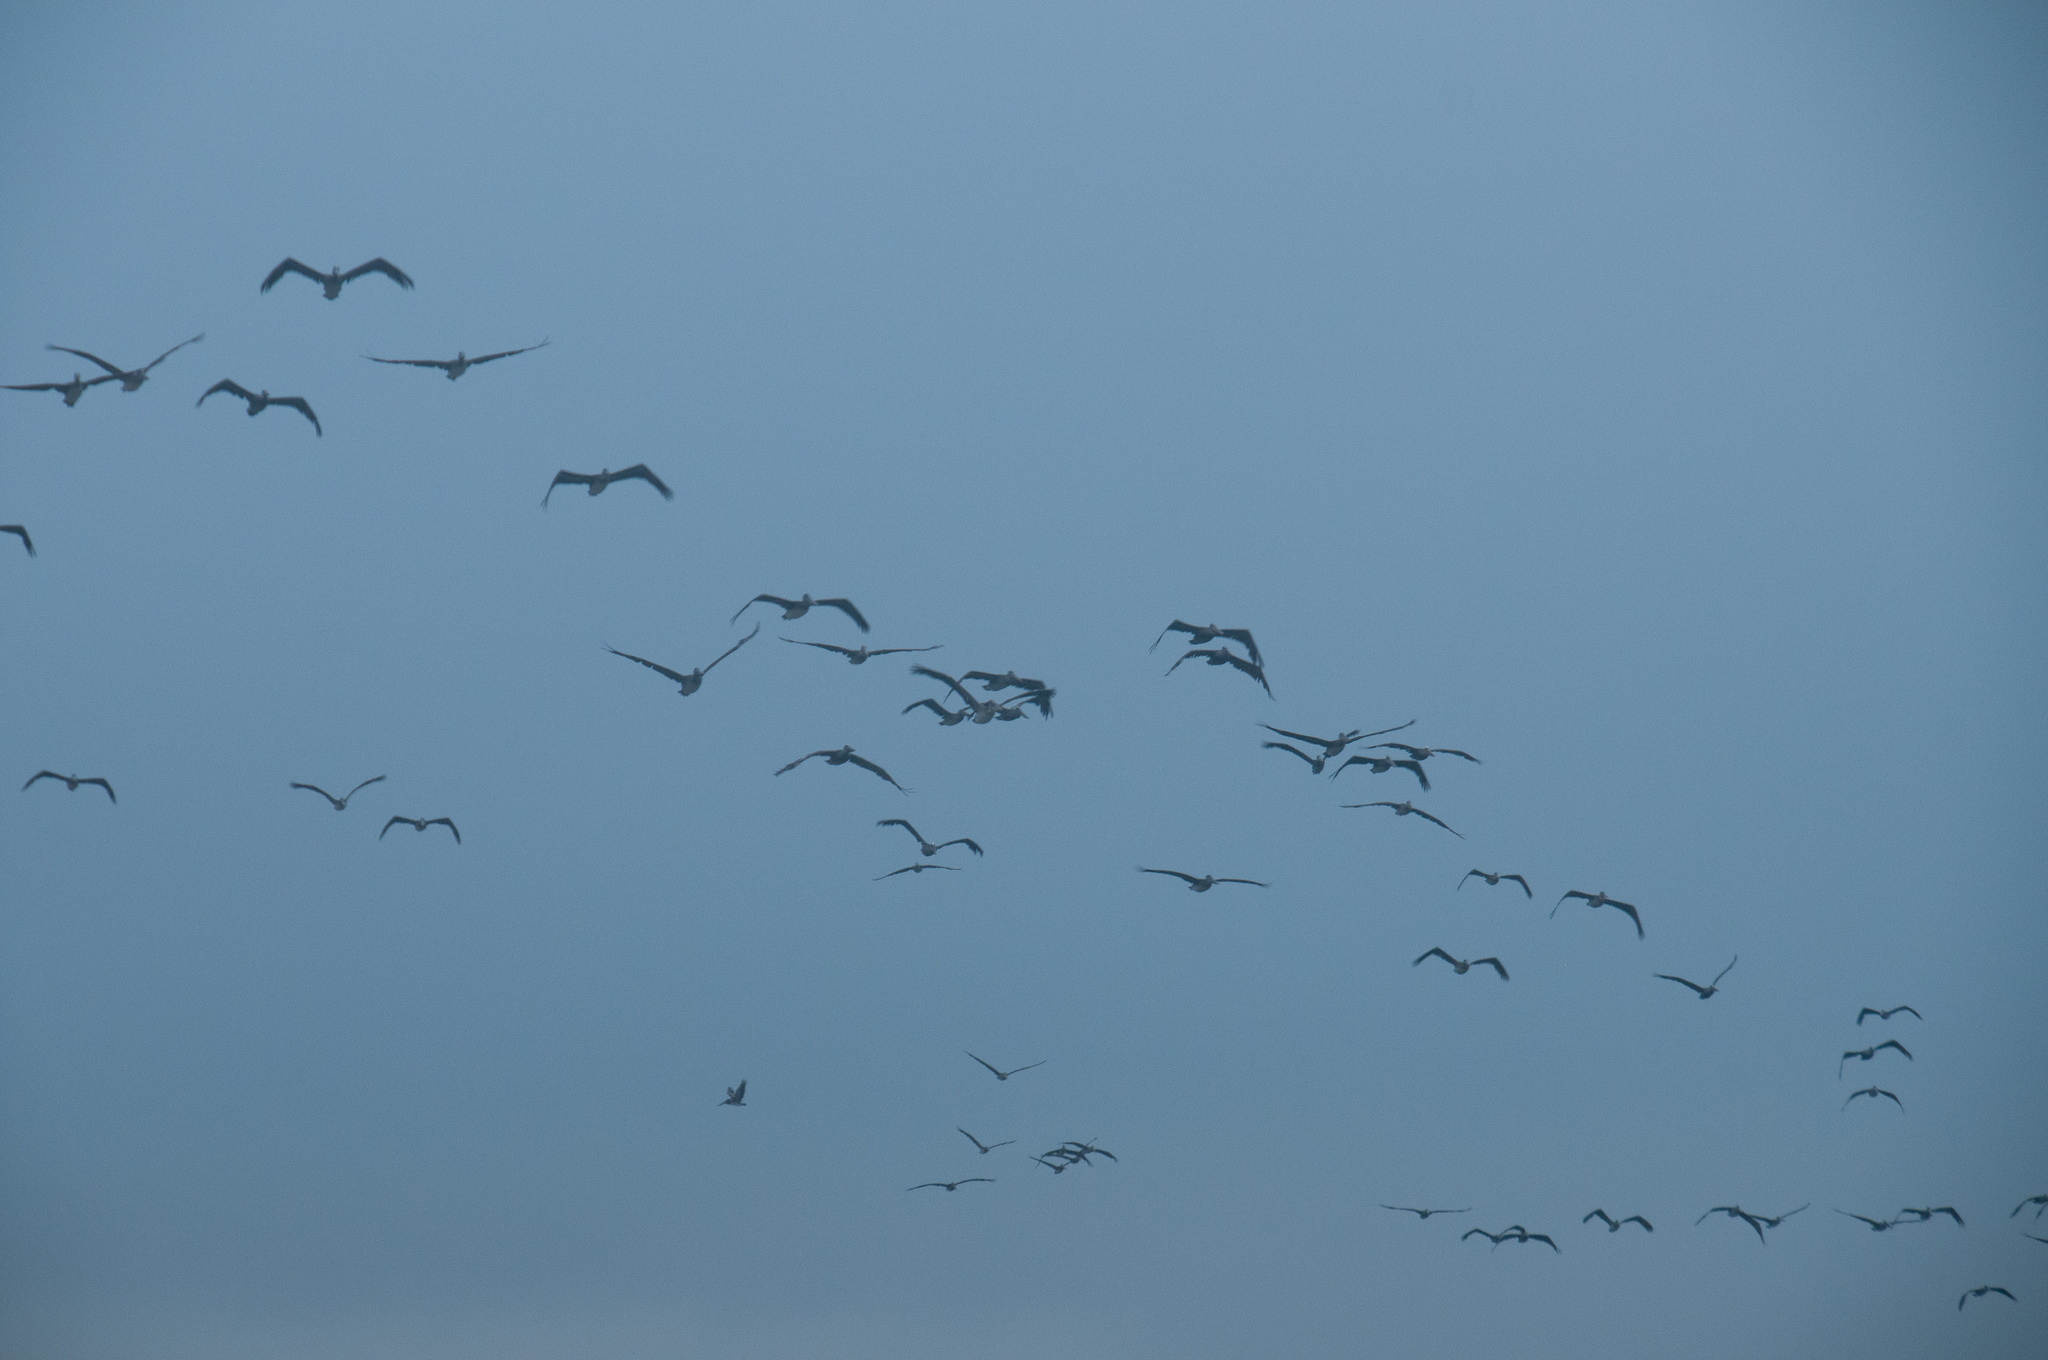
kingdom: Animalia
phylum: Chordata
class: Aves
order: Pelecaniformes
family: Pelecanidae
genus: Pelecanus
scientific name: Pelecanus occidentalis
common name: Brown pelican
